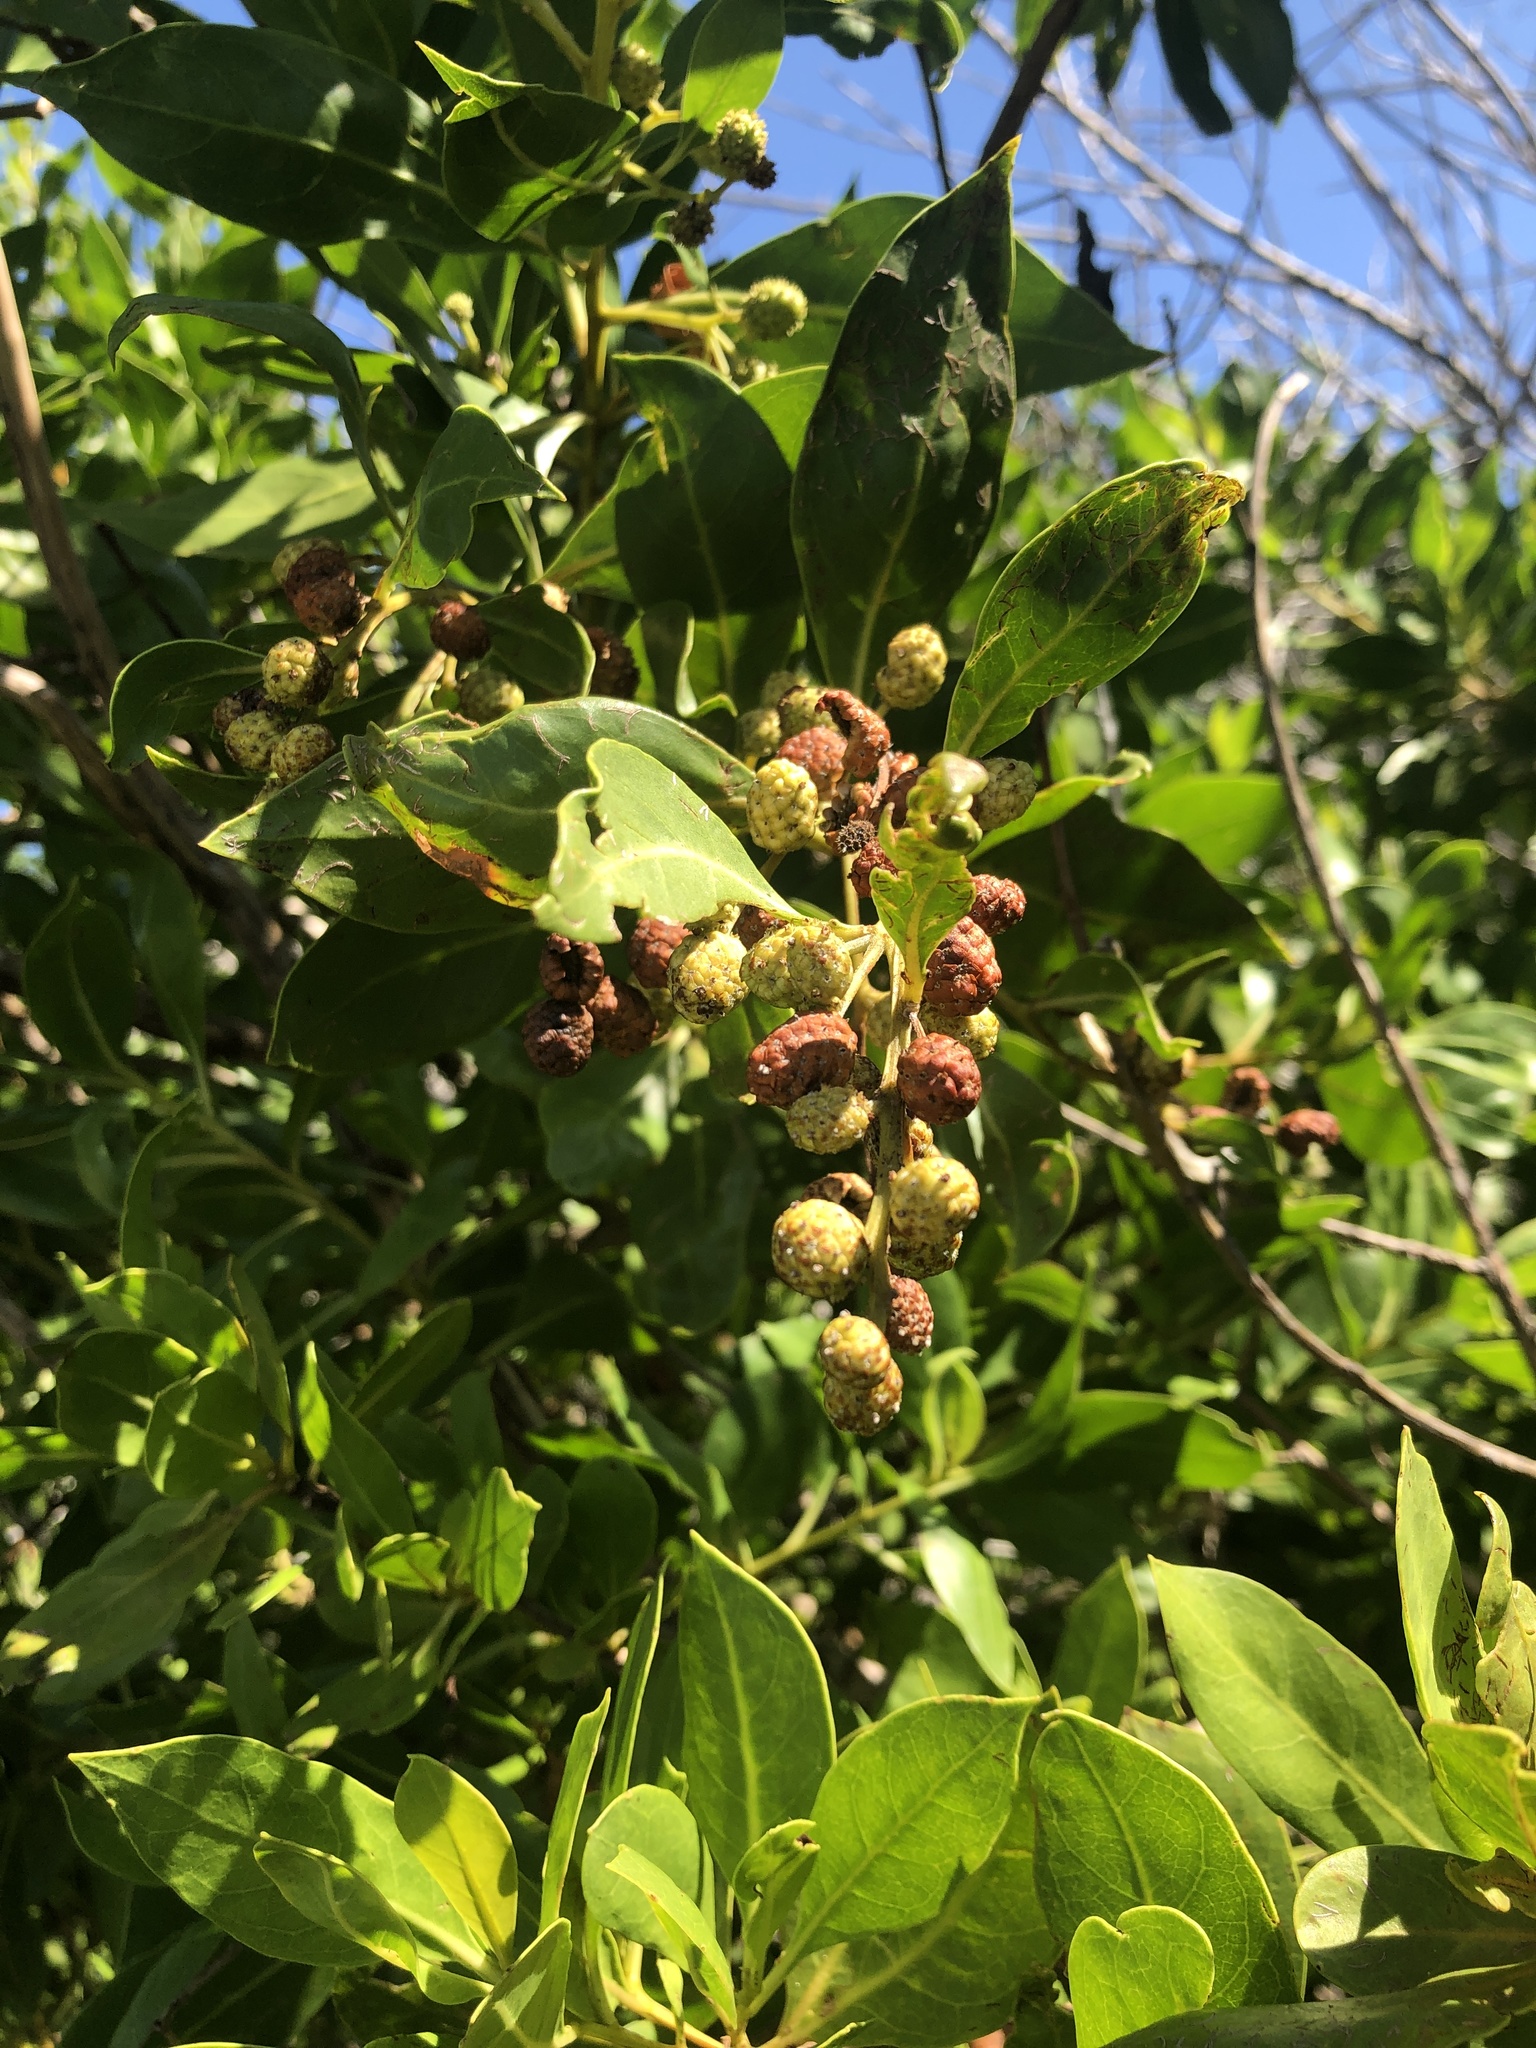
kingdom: Plantae
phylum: Tracheophyta
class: Magnoliopsida
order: Myrtales
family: Combretaceae
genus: Conocarpus
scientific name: Conocarpus erectus
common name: Button mangrove
